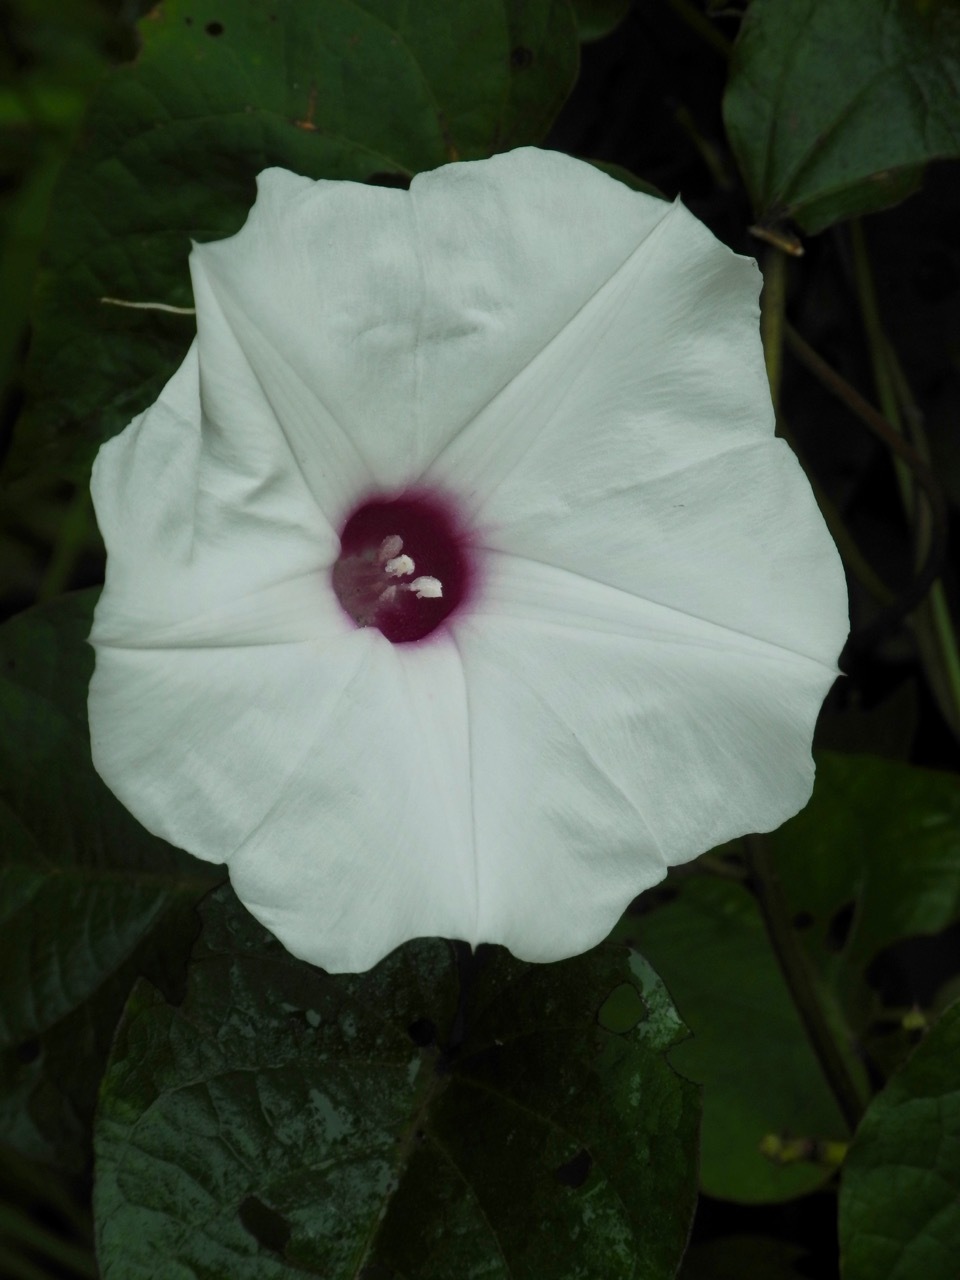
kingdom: Plantae
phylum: Tracheophyta
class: Magnoliopsida
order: Solanales
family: Convolvulaceae
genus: Ipomoea
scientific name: Ipomoea pandurata
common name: Man-of-the-earth
